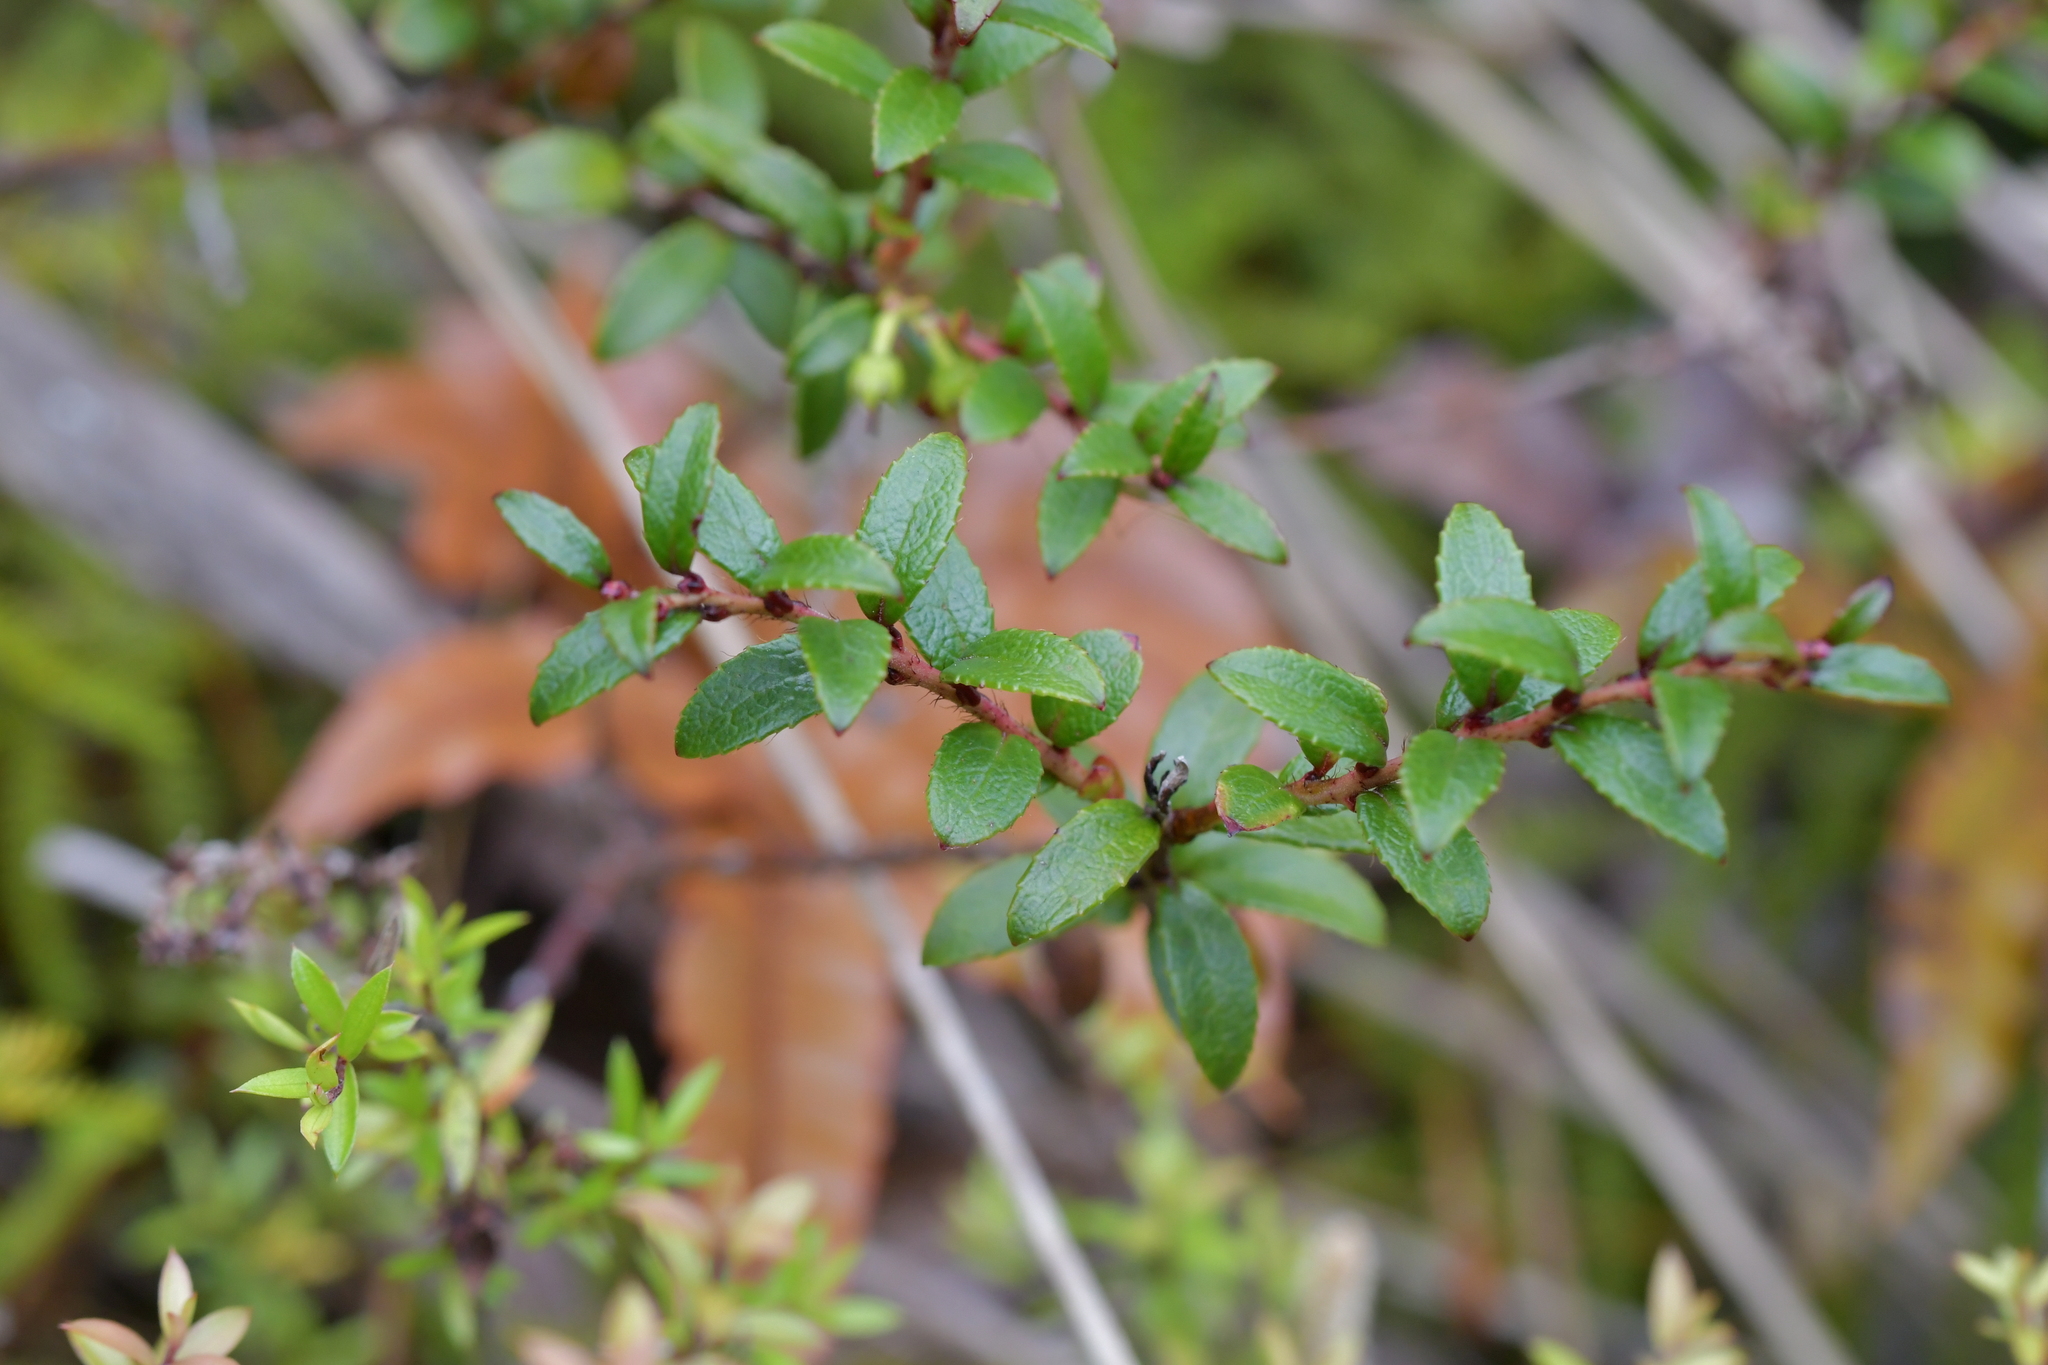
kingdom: Plantae
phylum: Tracheophyta
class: Magnoliopsida
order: Ericales
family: Ericaceae
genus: Gaultheria
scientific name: Gaultheria rupestris
